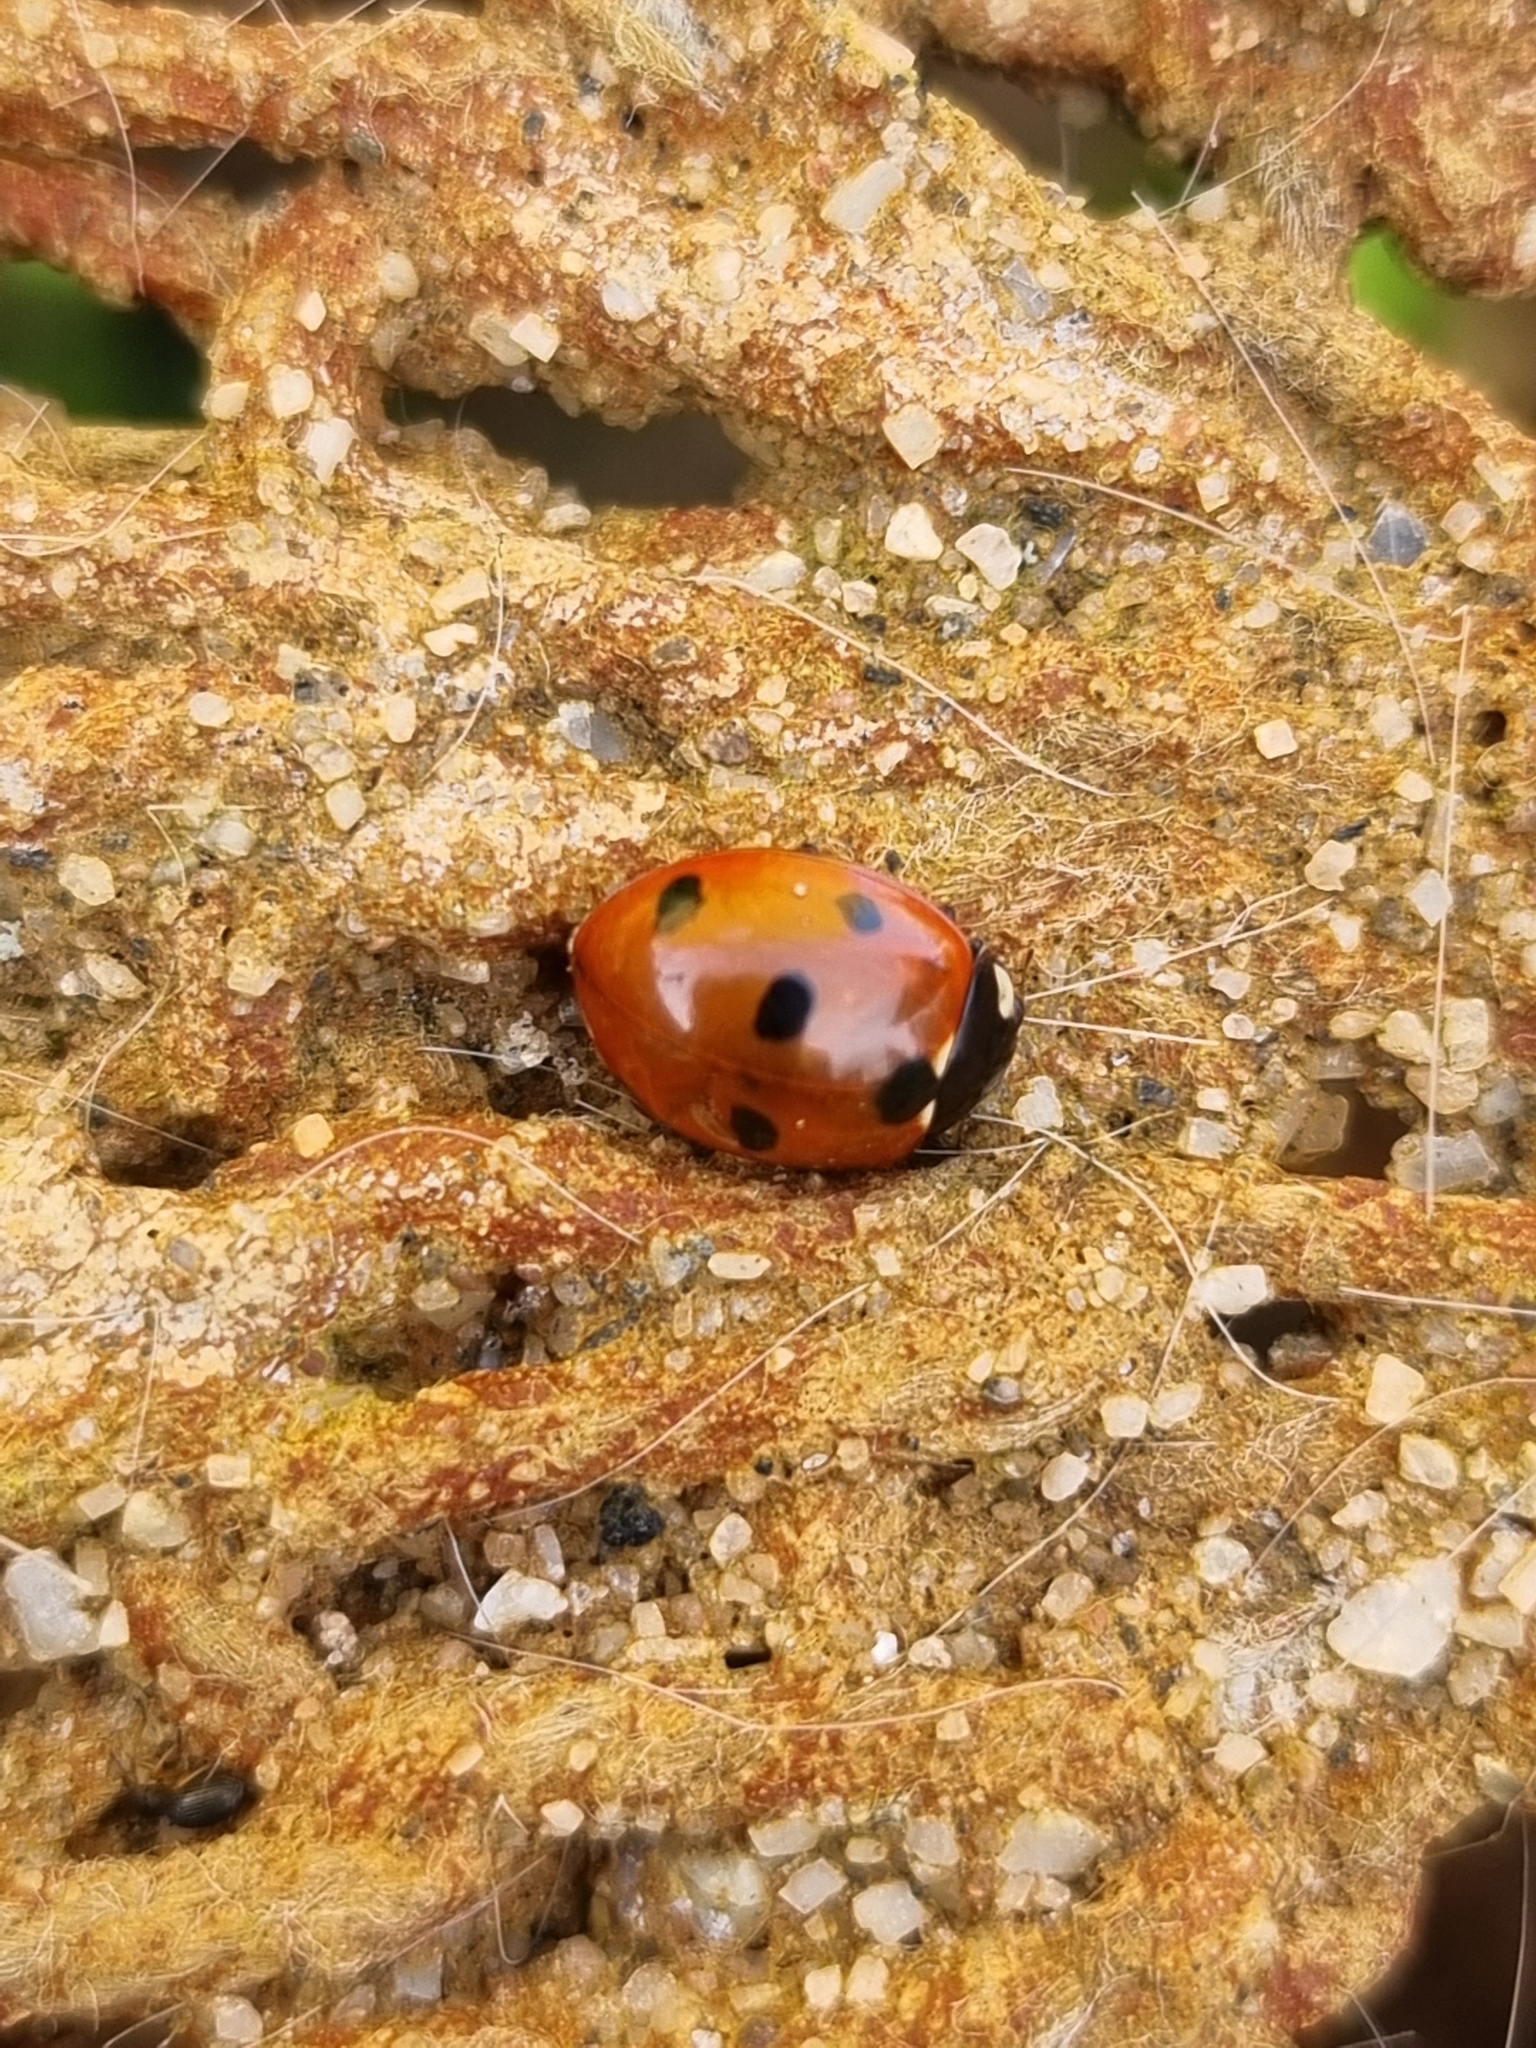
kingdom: Animalia
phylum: Arthropoda
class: Insecta
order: Coleoptera
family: Coccinellidae
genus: Coccinella
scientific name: Coccinella septempunctata
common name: Sevenspotted lady beetle
